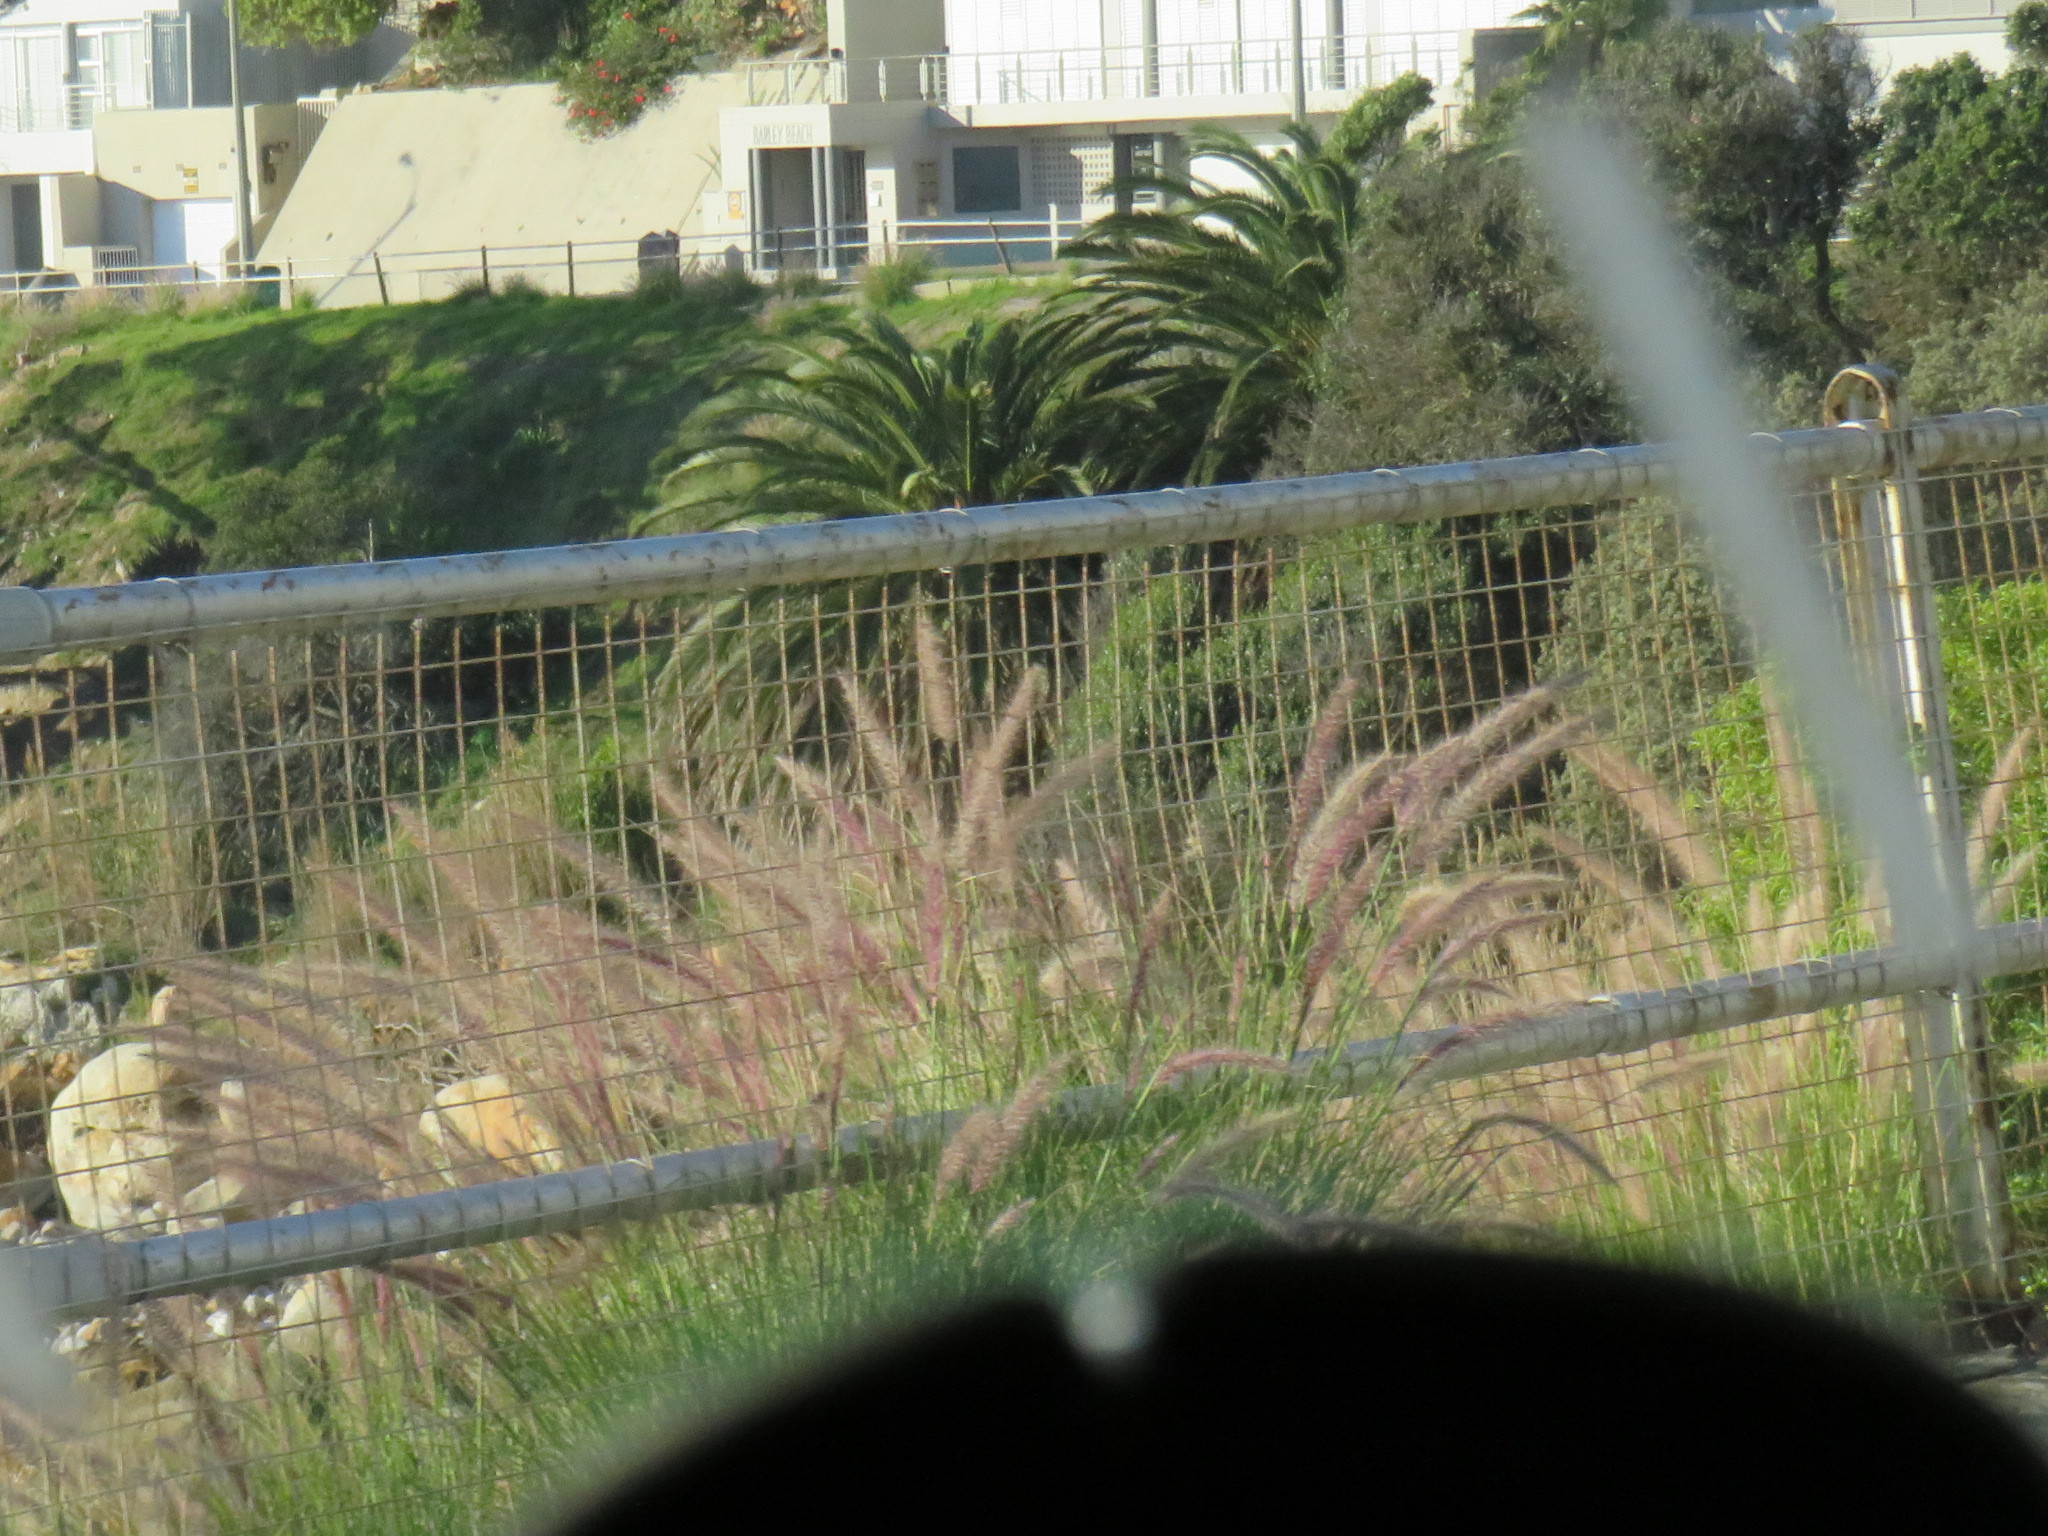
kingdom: Plantae
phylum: Tracheophyta
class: Liliopsida
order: Poales
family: Poaceae
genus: Cenchrus
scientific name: Cenchrus setaceus
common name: Crimson fountaingrass
